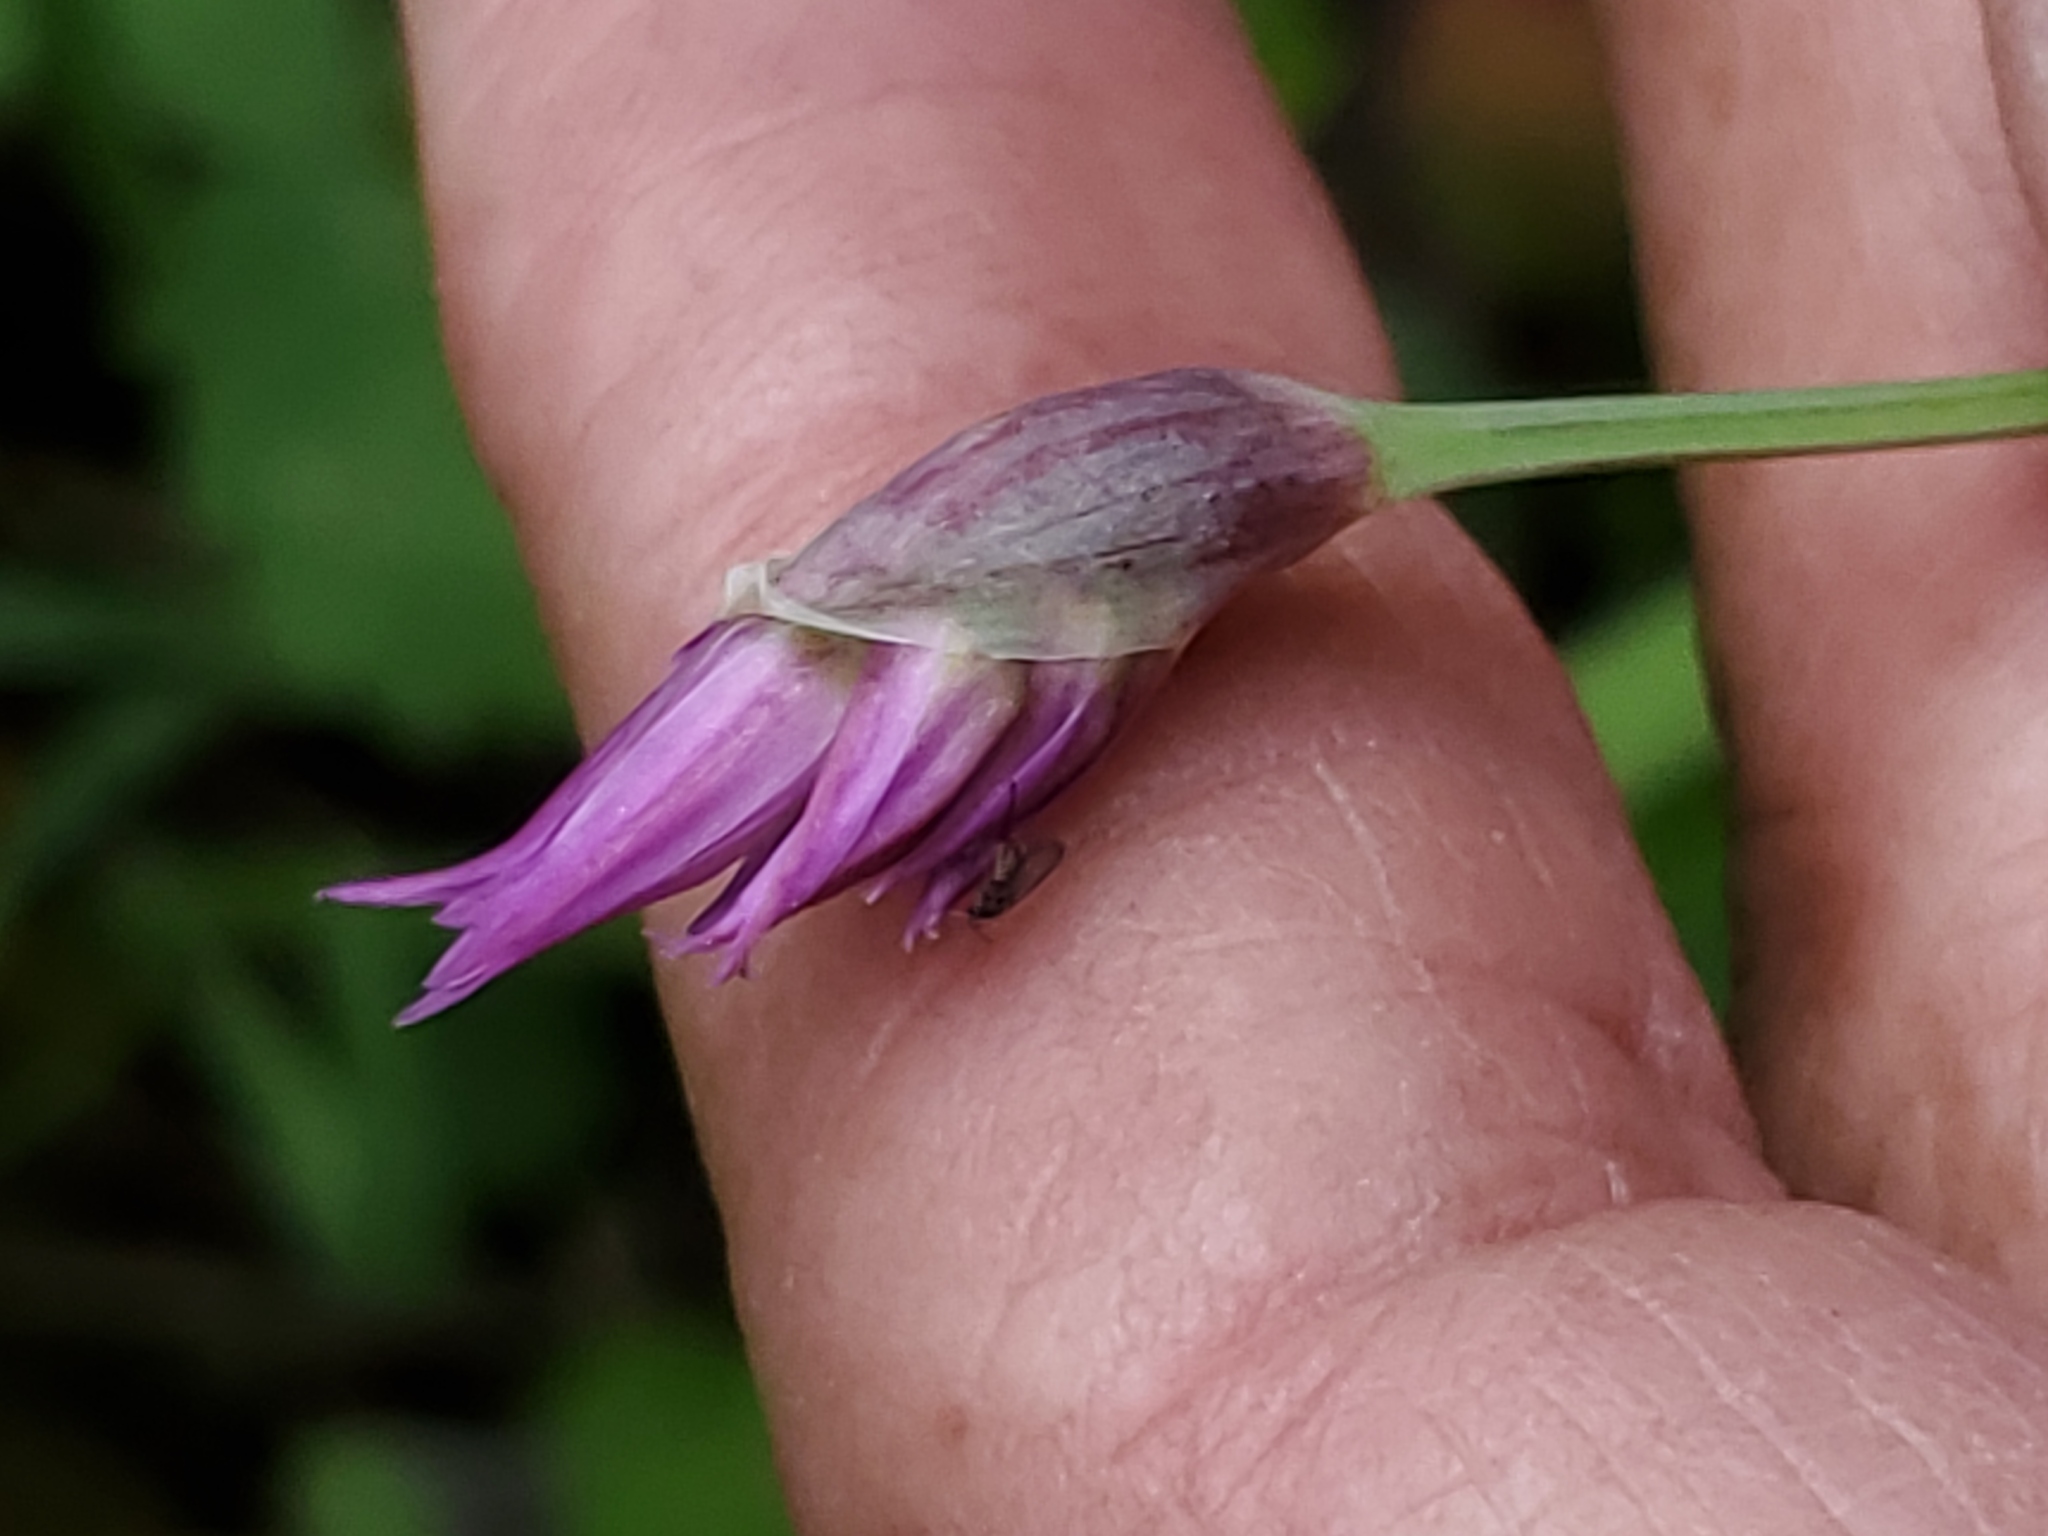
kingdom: Plantae
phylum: Tracheophyta
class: Liliopsida
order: Asparagales
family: Amaryllidaceae
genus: Allium
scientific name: Allium brevistylum
